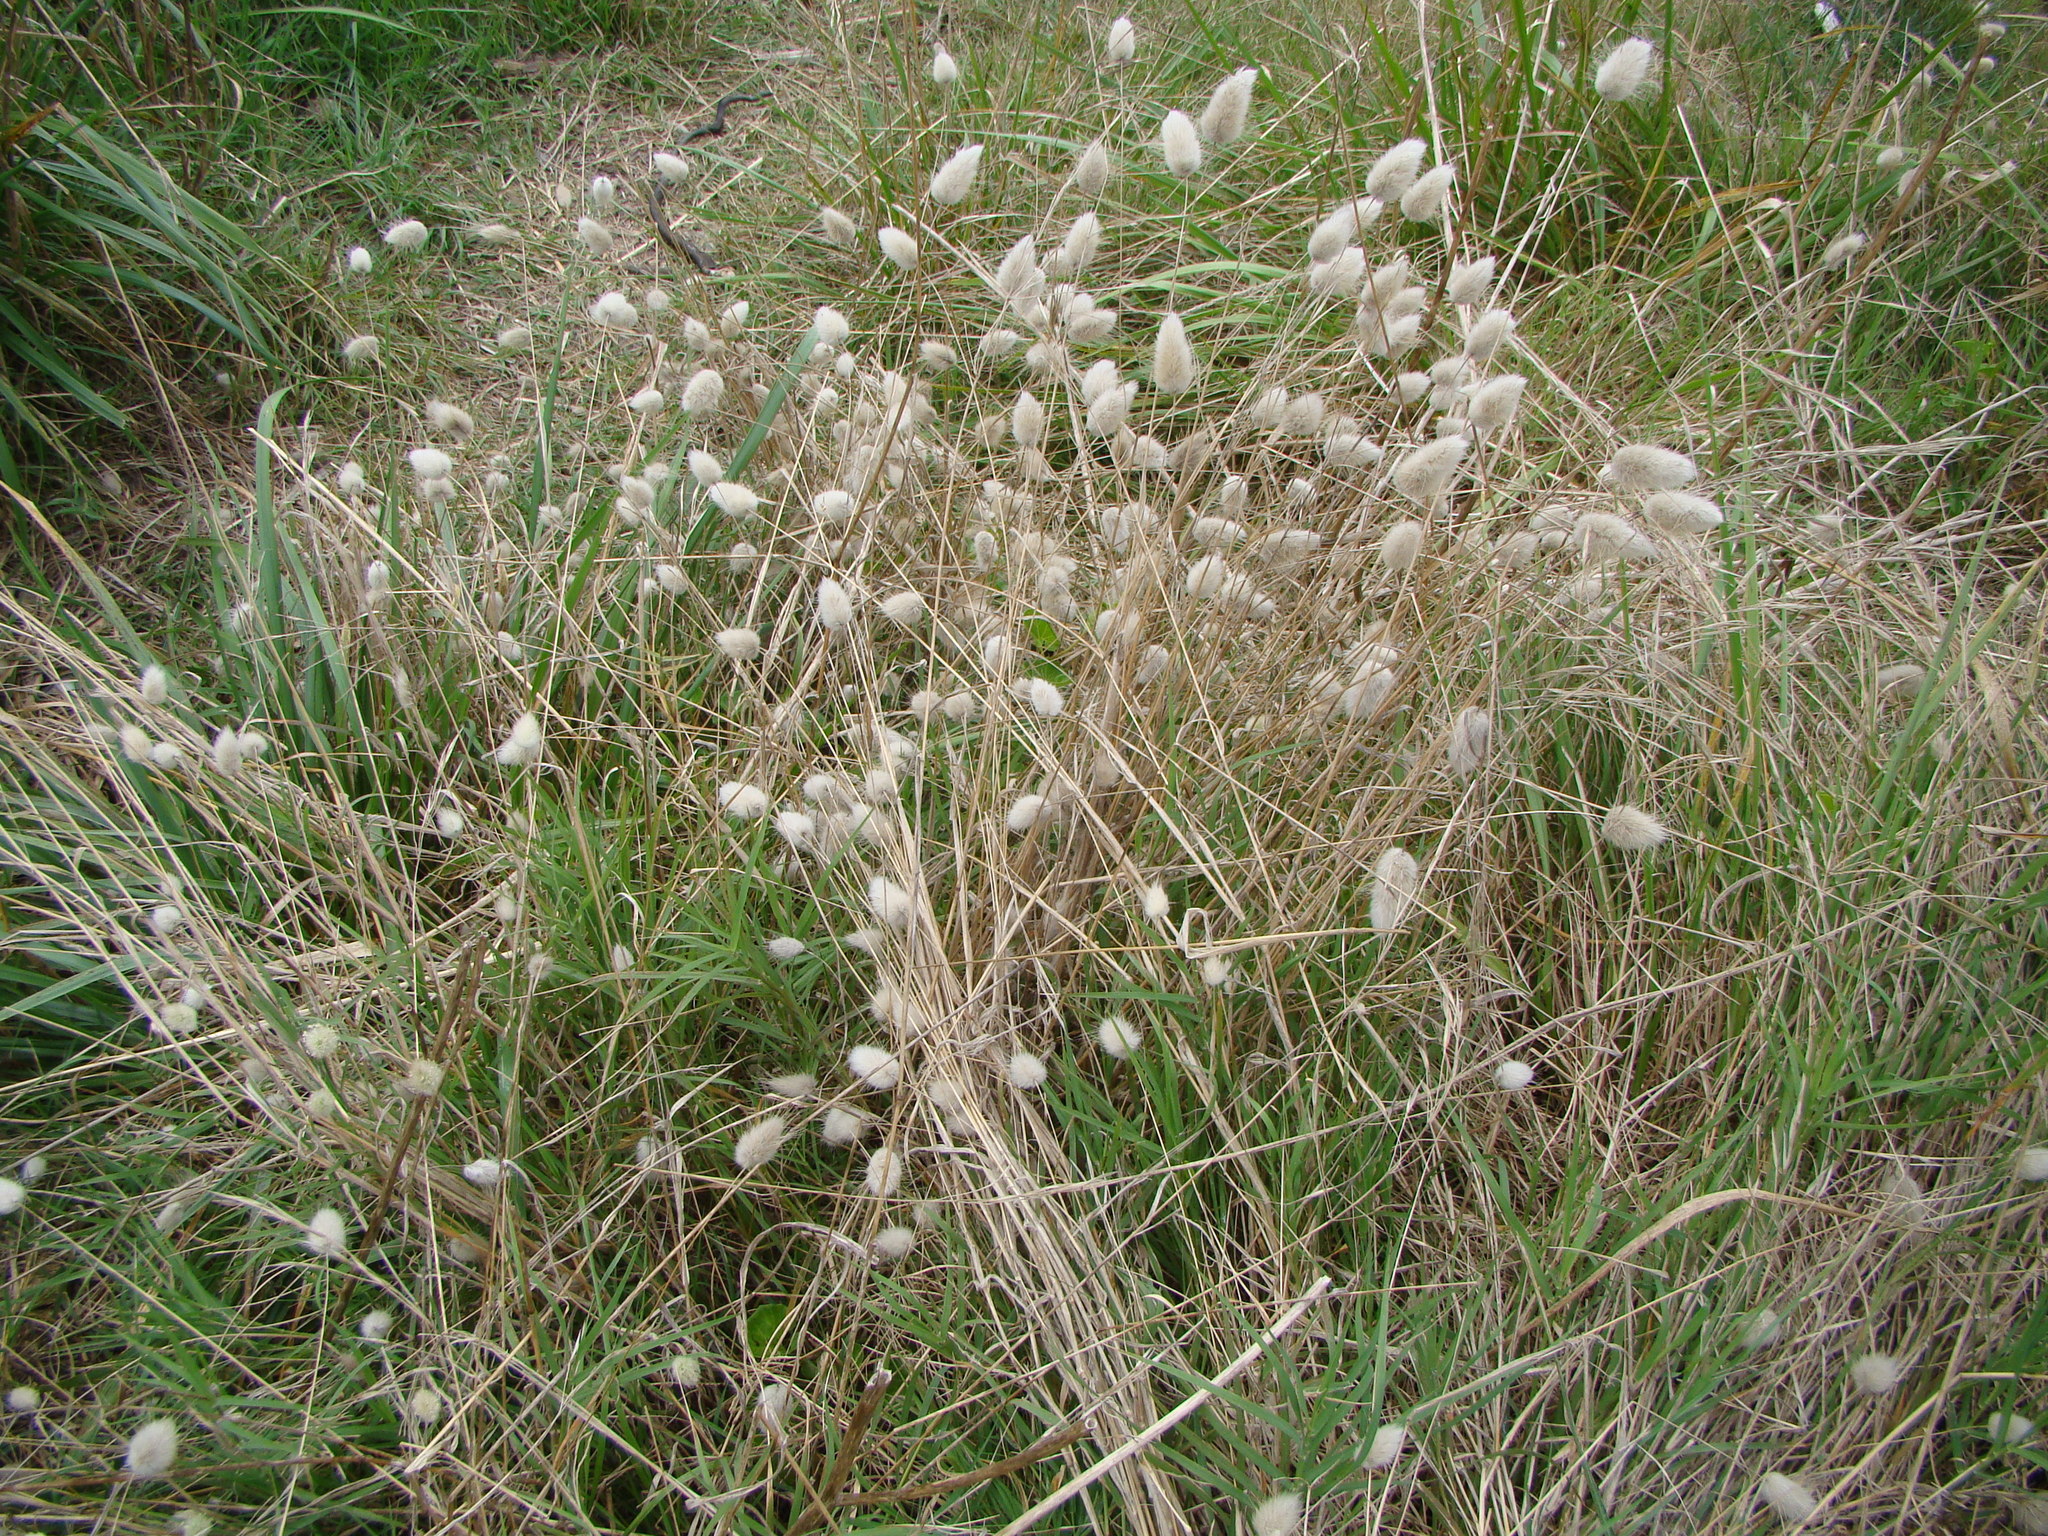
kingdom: Plantae
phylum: Tracheophyta
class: Liliopsida
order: Poales
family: Poaceae
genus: Lagurus
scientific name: Lagurus ovatus
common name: Hare's-tail
